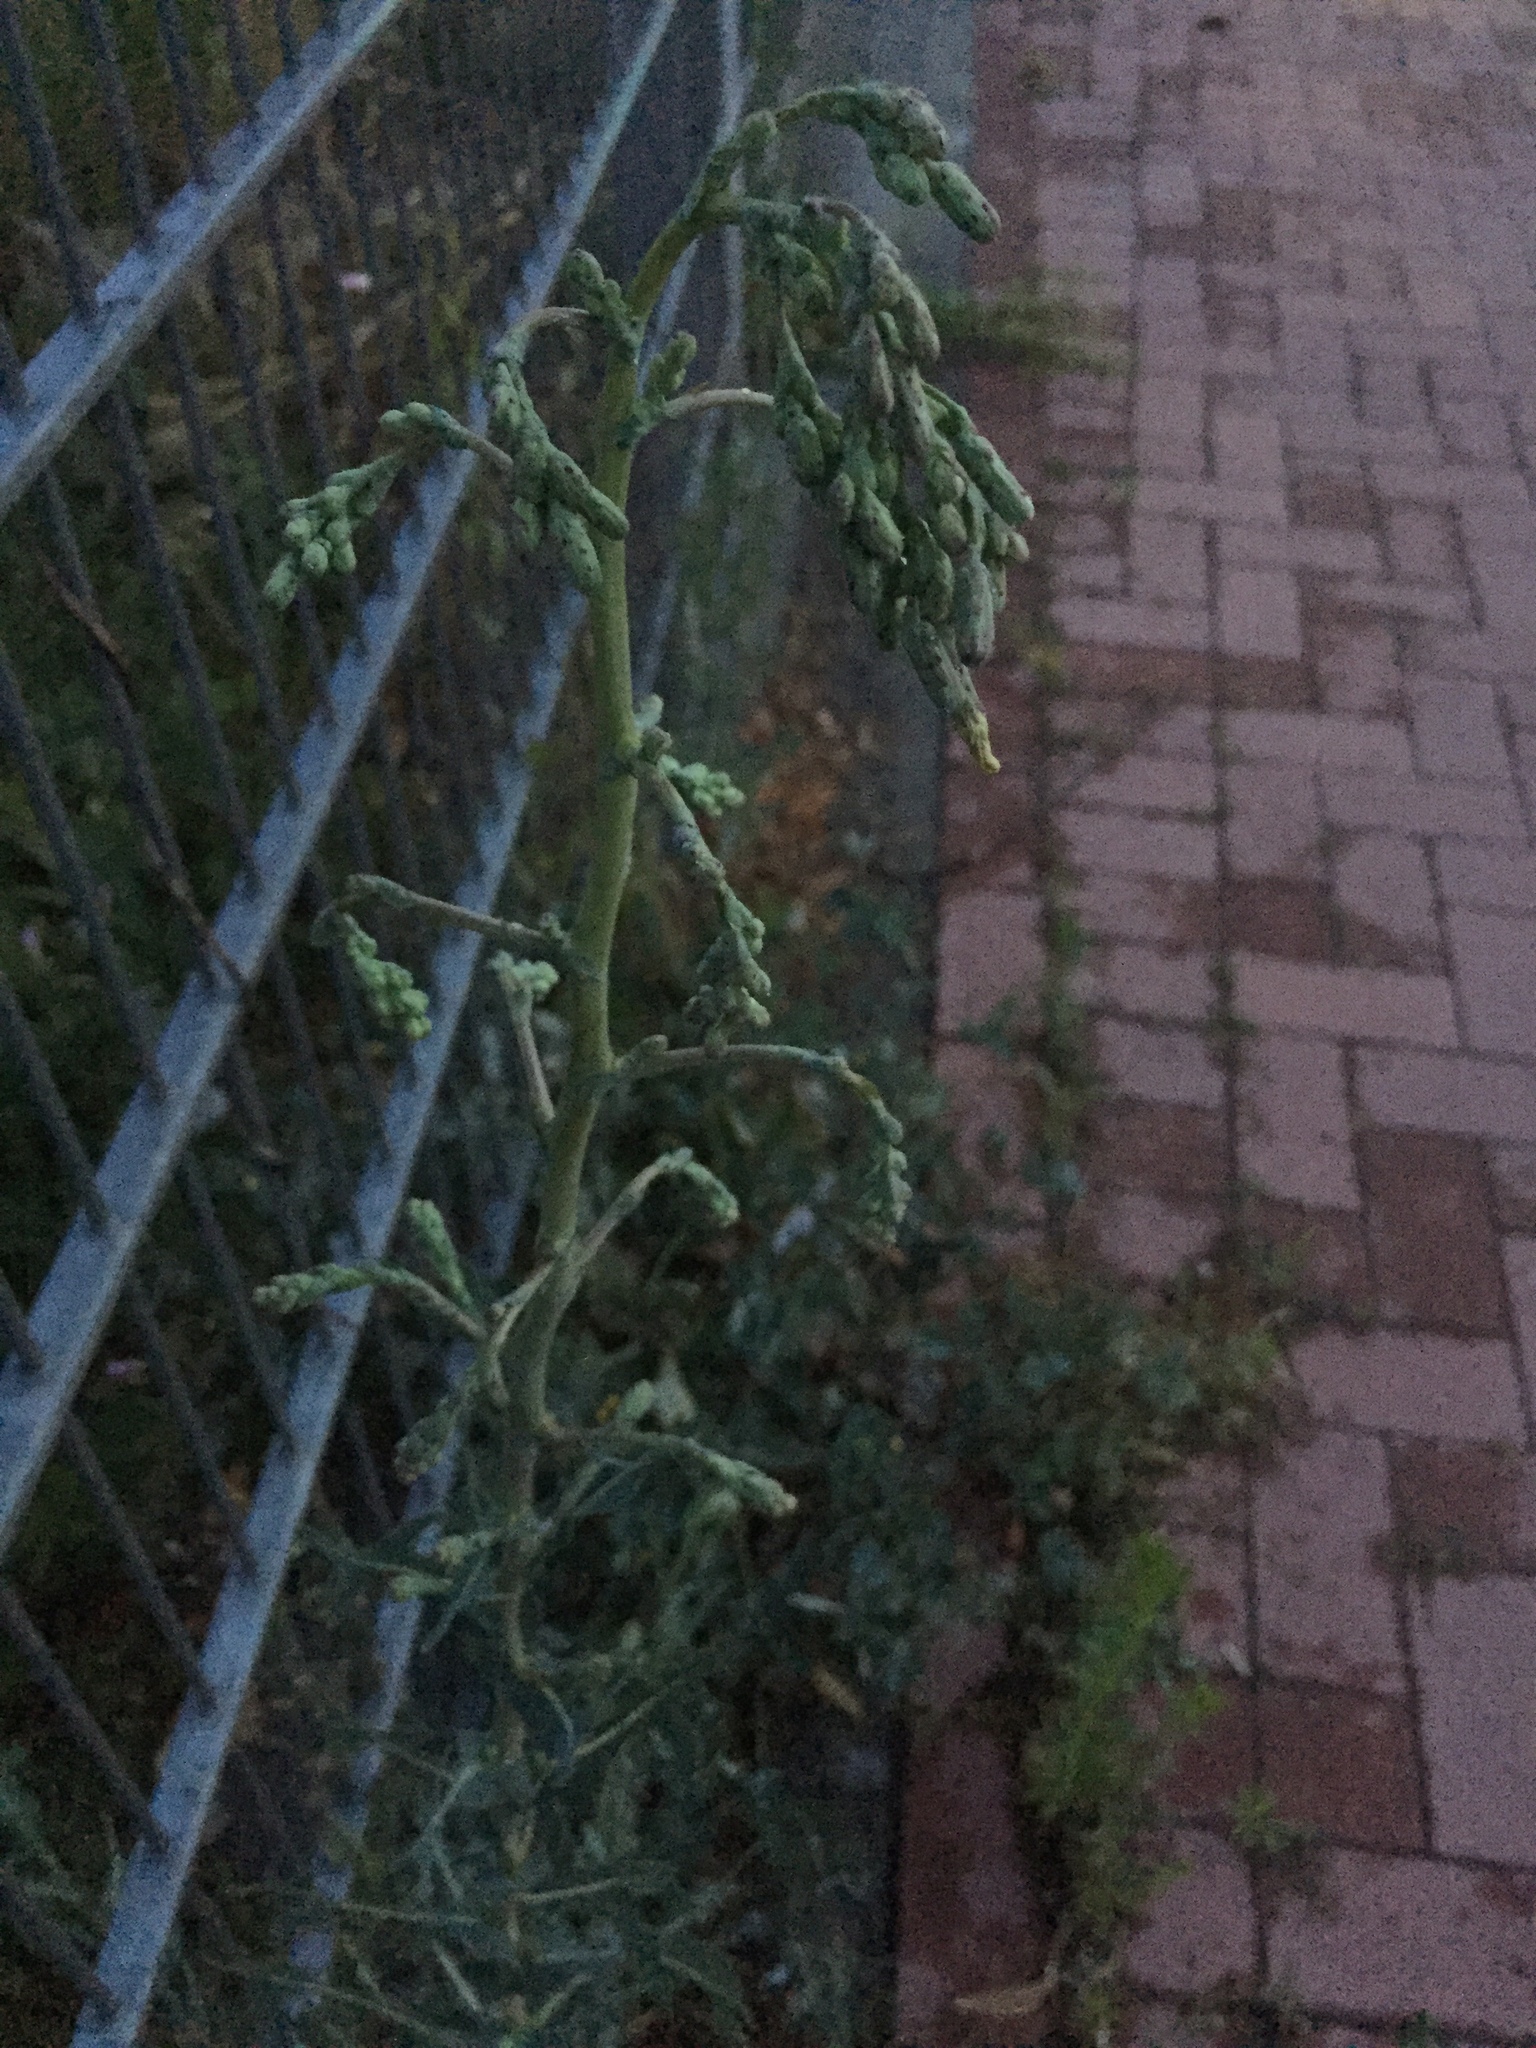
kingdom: Plantae
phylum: Tracheophyta
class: Magnoliopsida
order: Asterales
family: Asteraceae
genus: Lactuca
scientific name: Lactuca serriola
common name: Prickly lettuce
